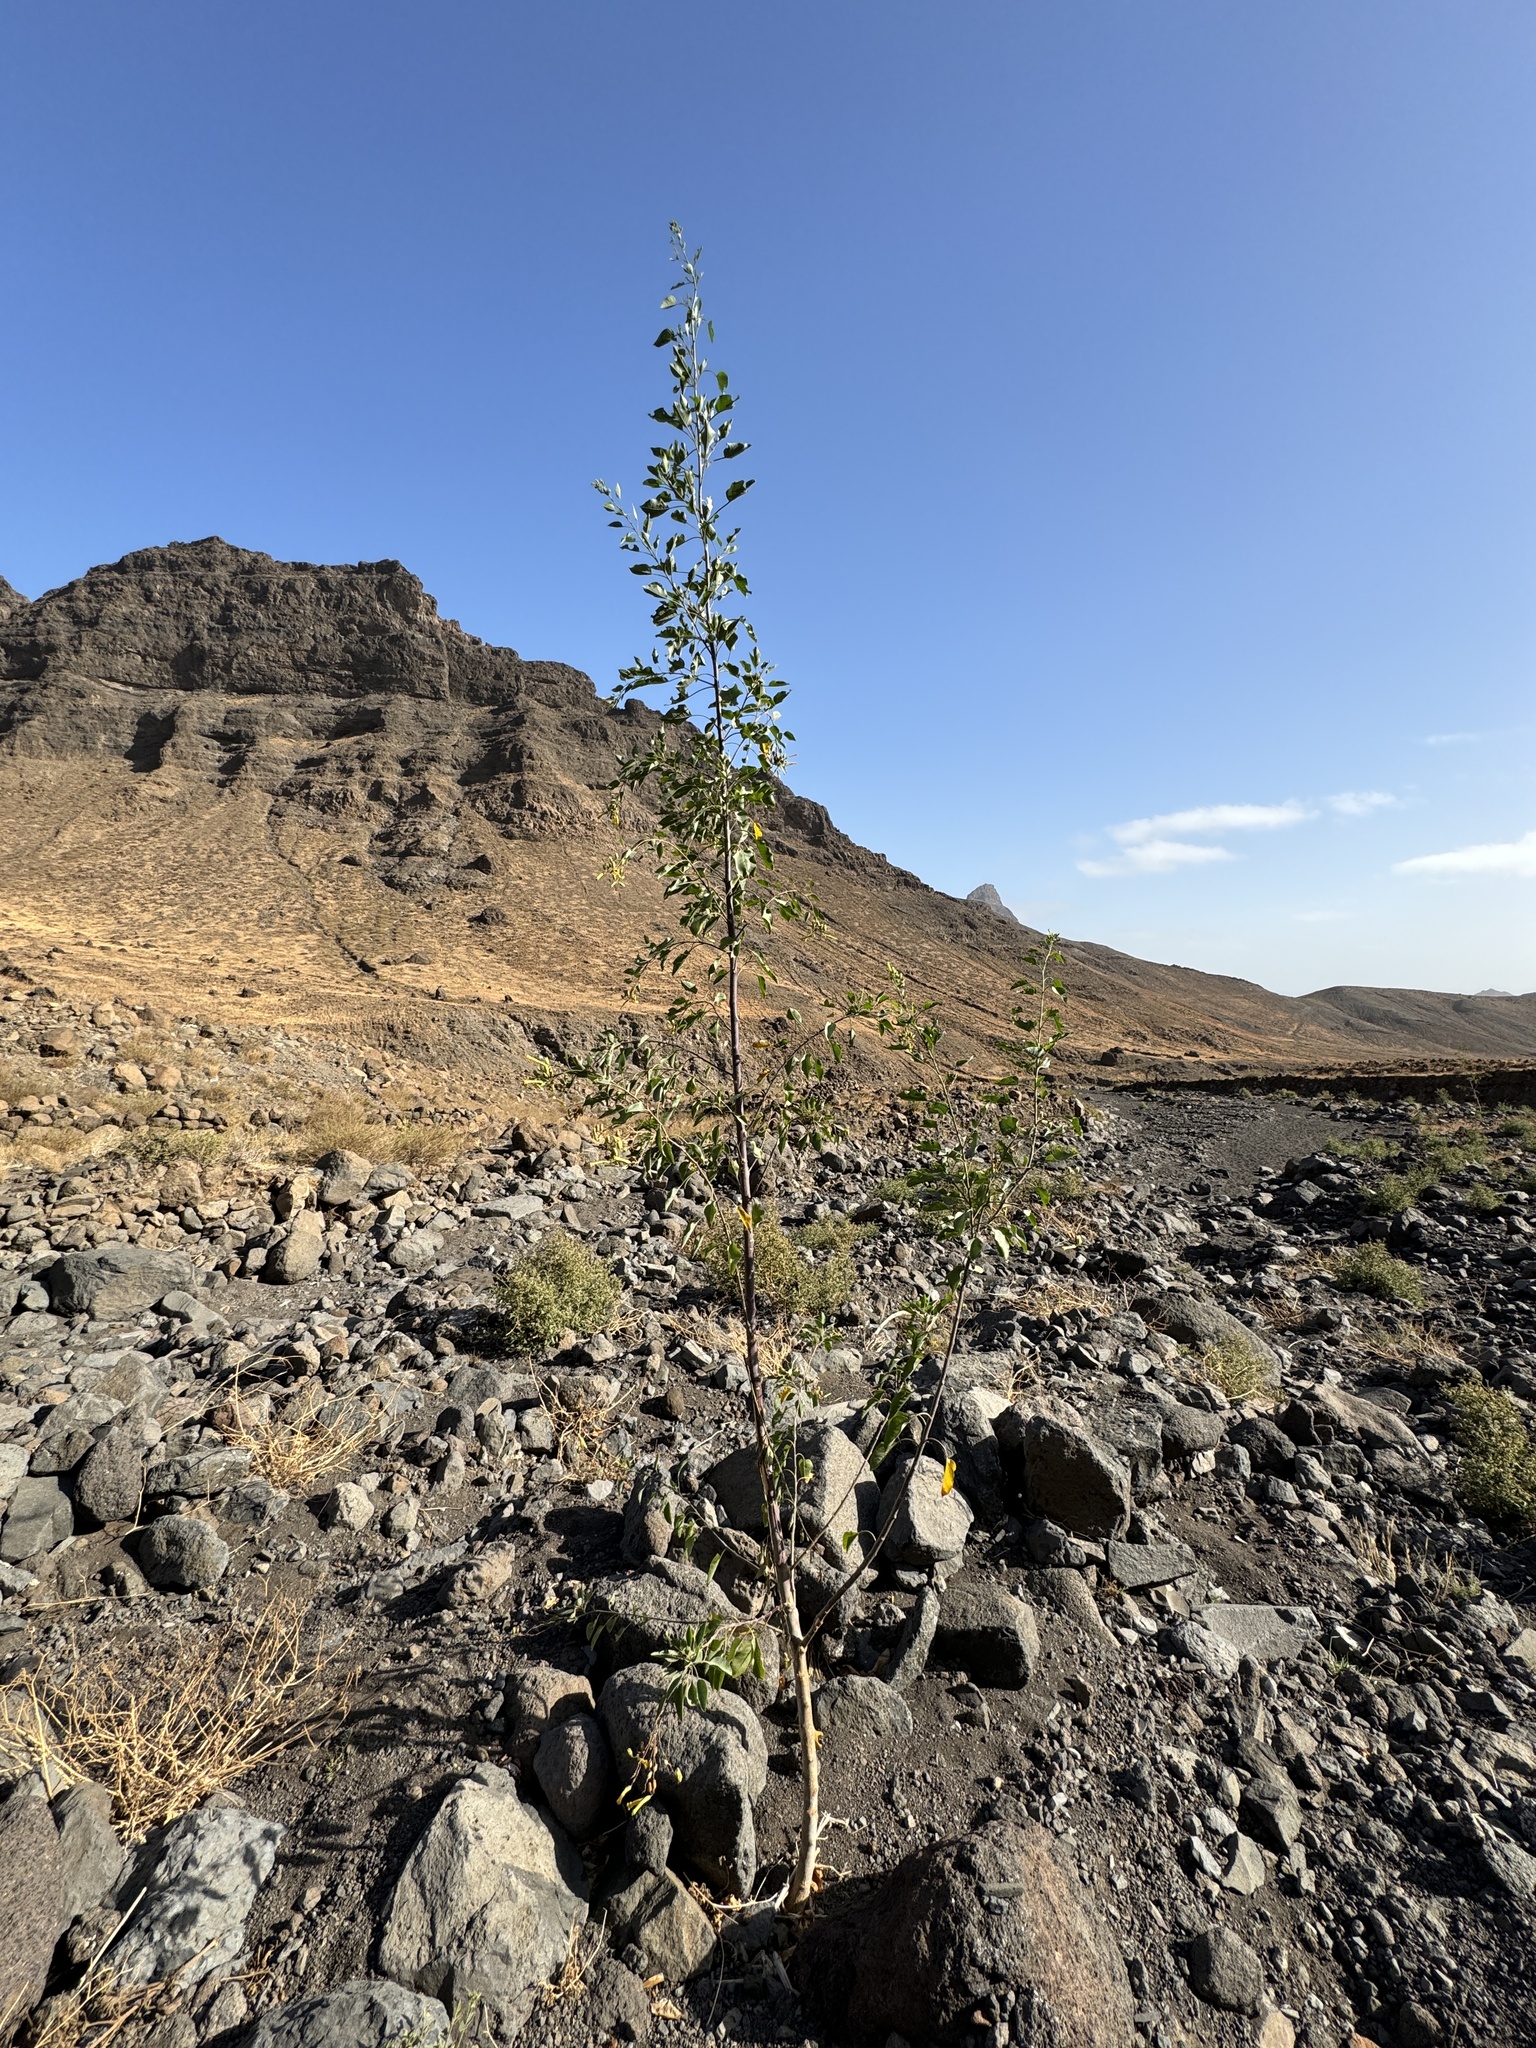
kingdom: Plantae
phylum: Tracheophyta
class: Magnoliopsida
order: Solanales
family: Solanaceae
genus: Nicotiana
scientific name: Nicotiana glauca
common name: Tree tobacco
